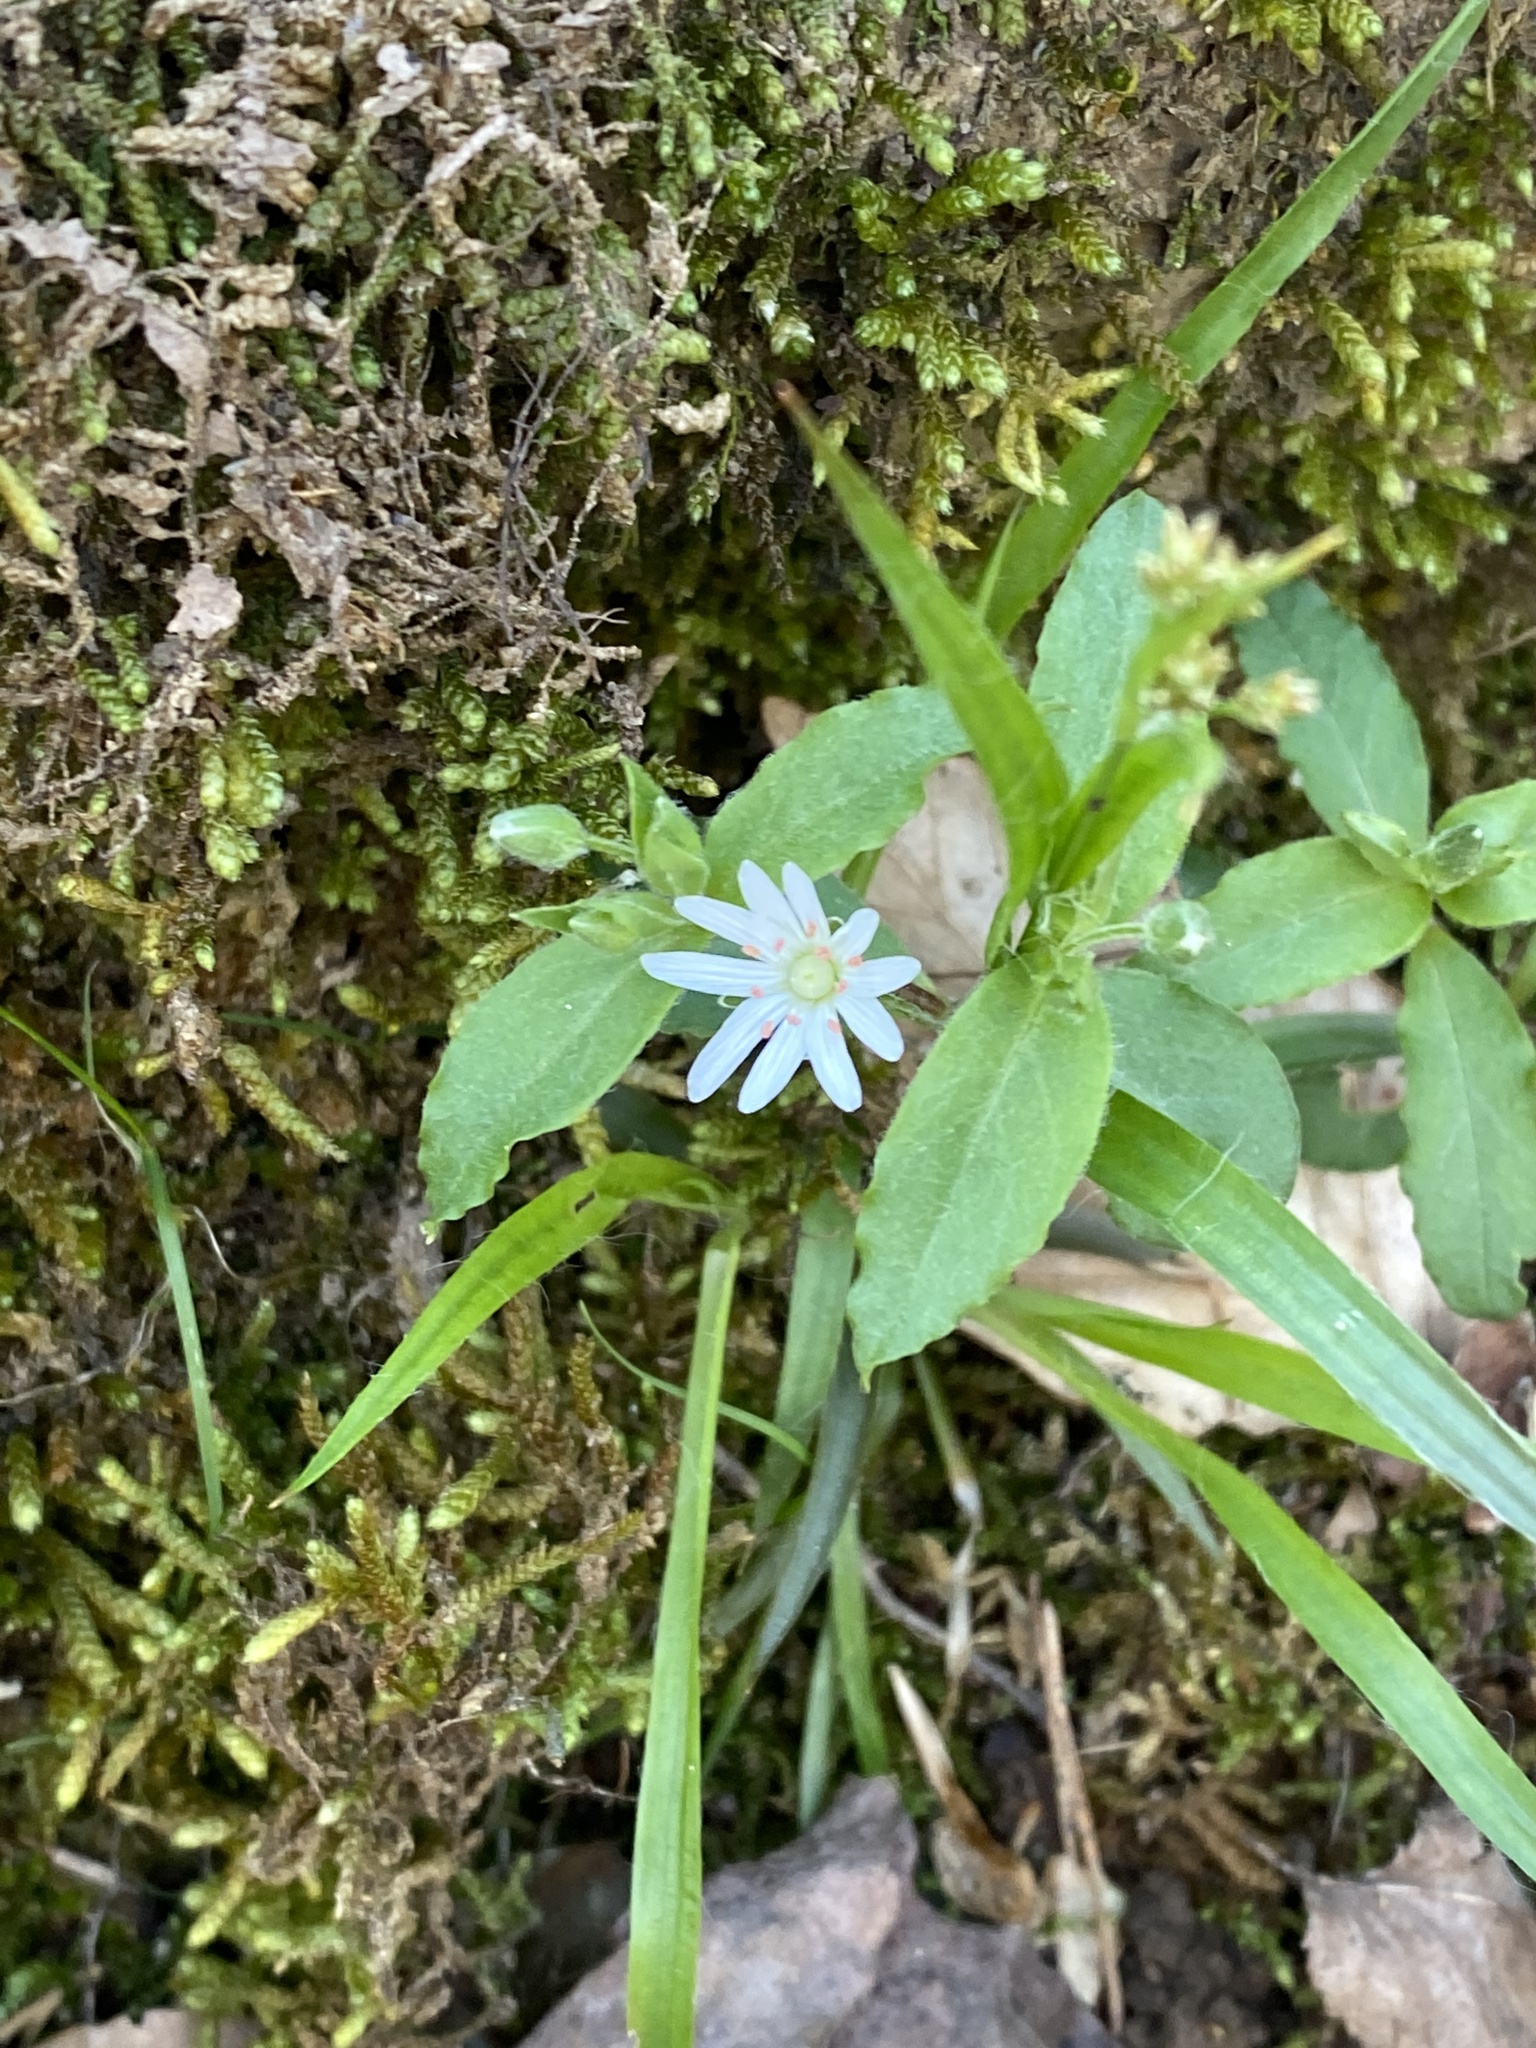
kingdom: Plantae
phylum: Tracheophyta
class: Magnoliopsida
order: Caryophyllales
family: Caryophyllaceae
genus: Stellaria
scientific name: Stellaria pubera
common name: Star chickweed
